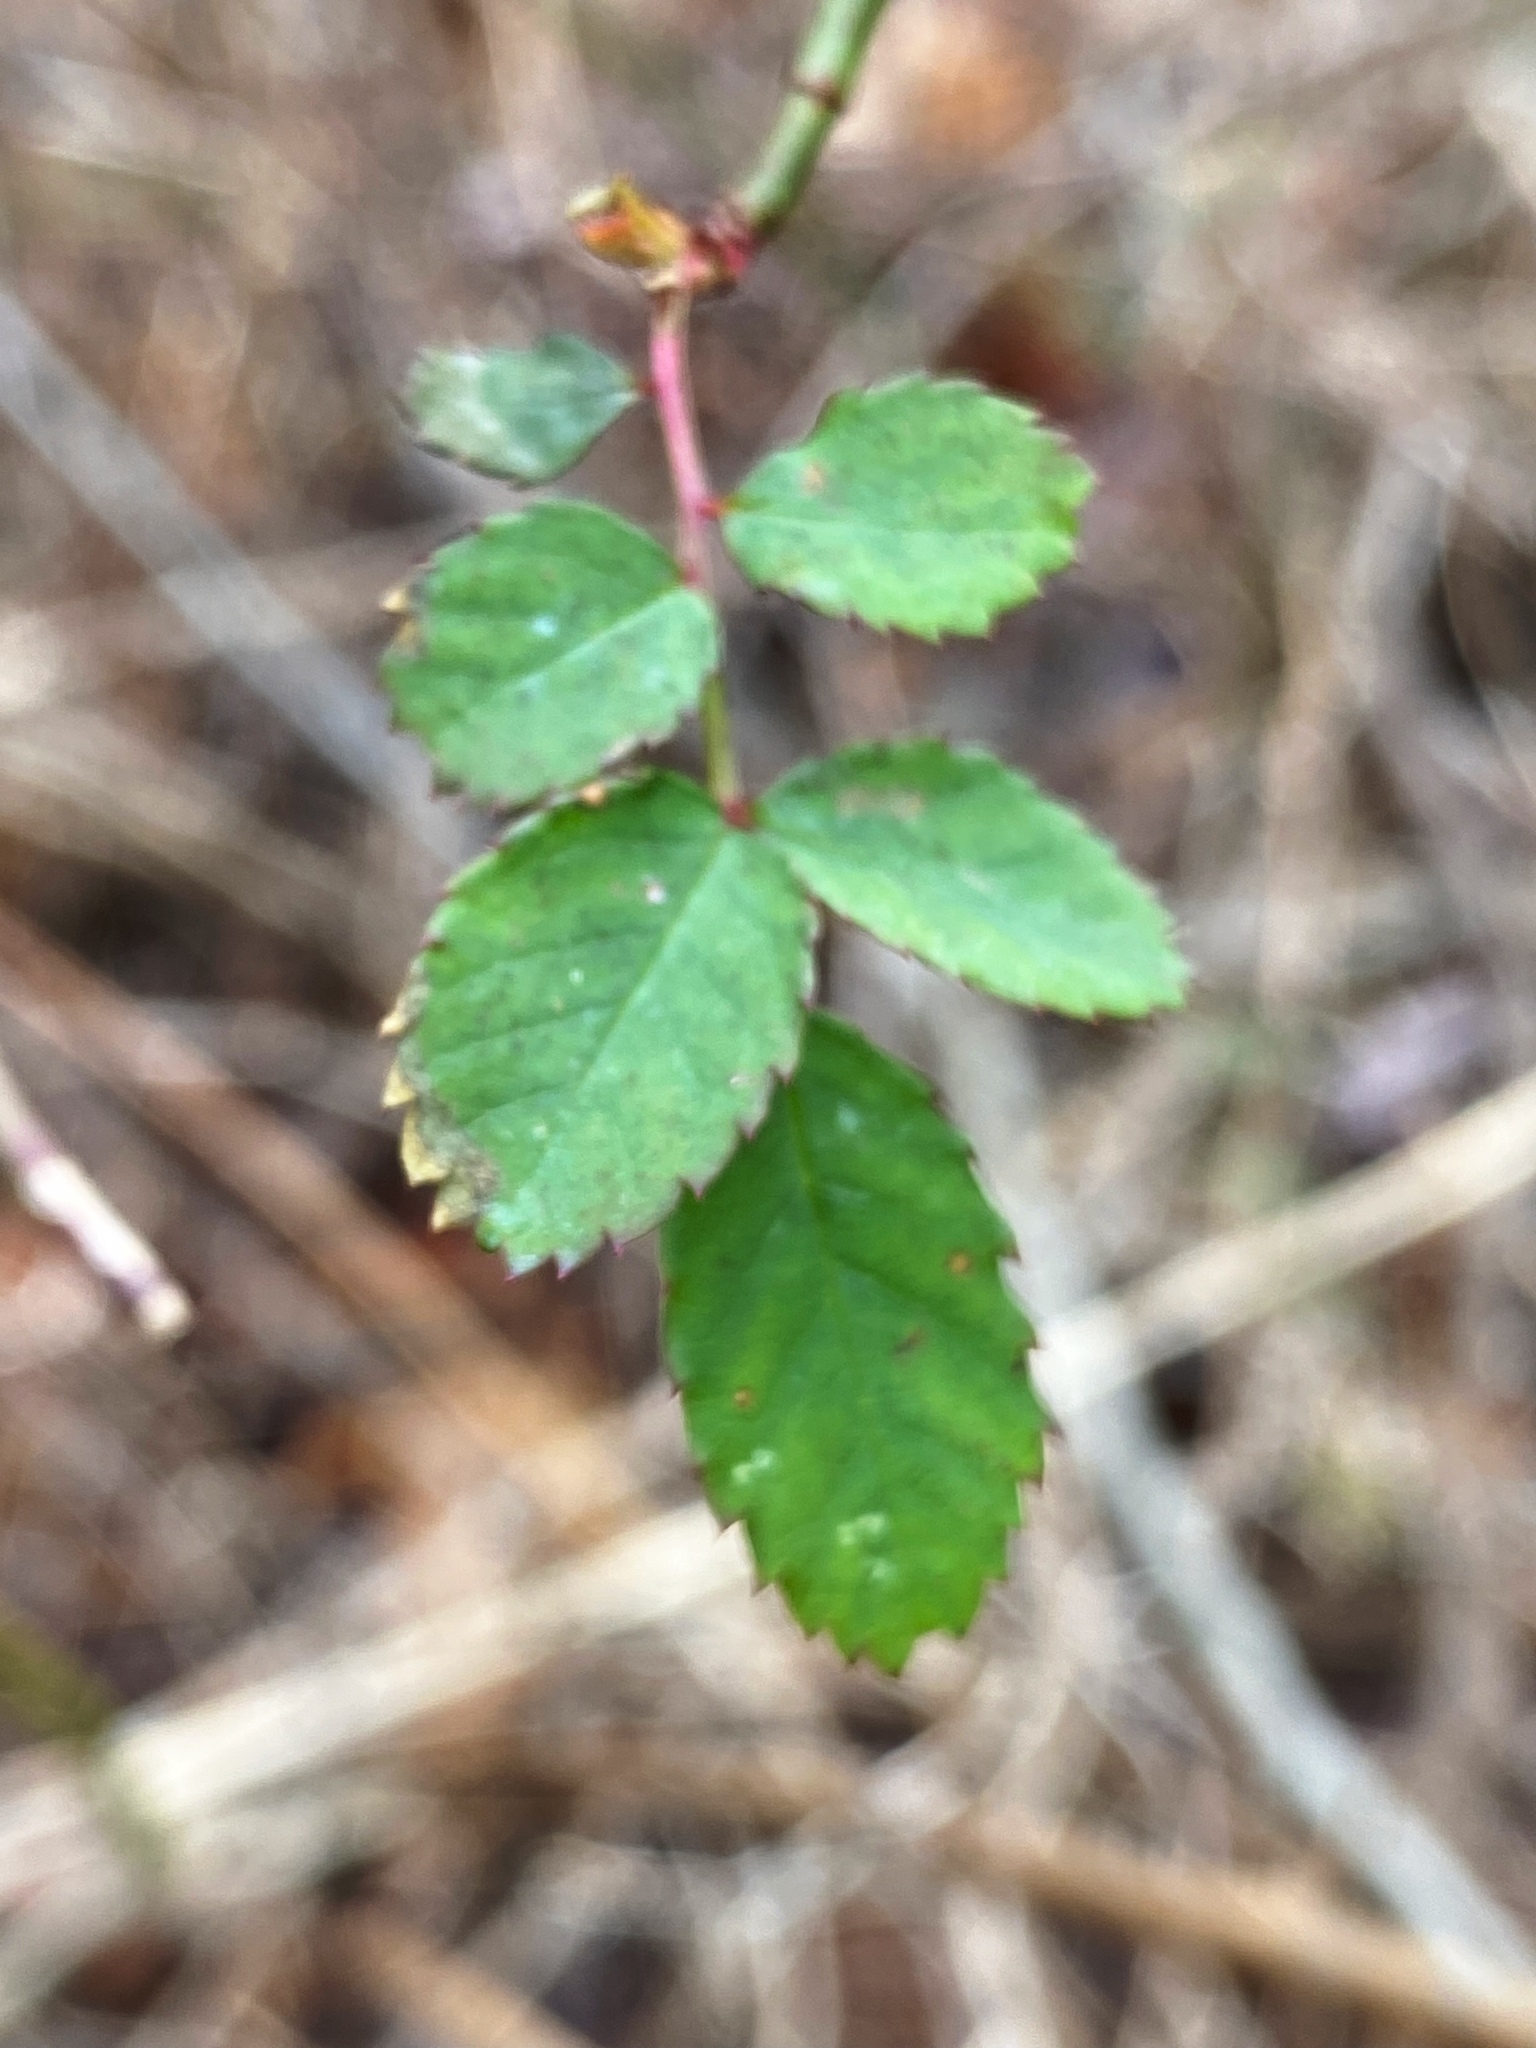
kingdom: Plantae
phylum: Tracheophyta
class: Magnoliopsida
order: Rosales
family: Rosaceae
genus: Rosa
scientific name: Rosa multiflora
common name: Multiflora rose
